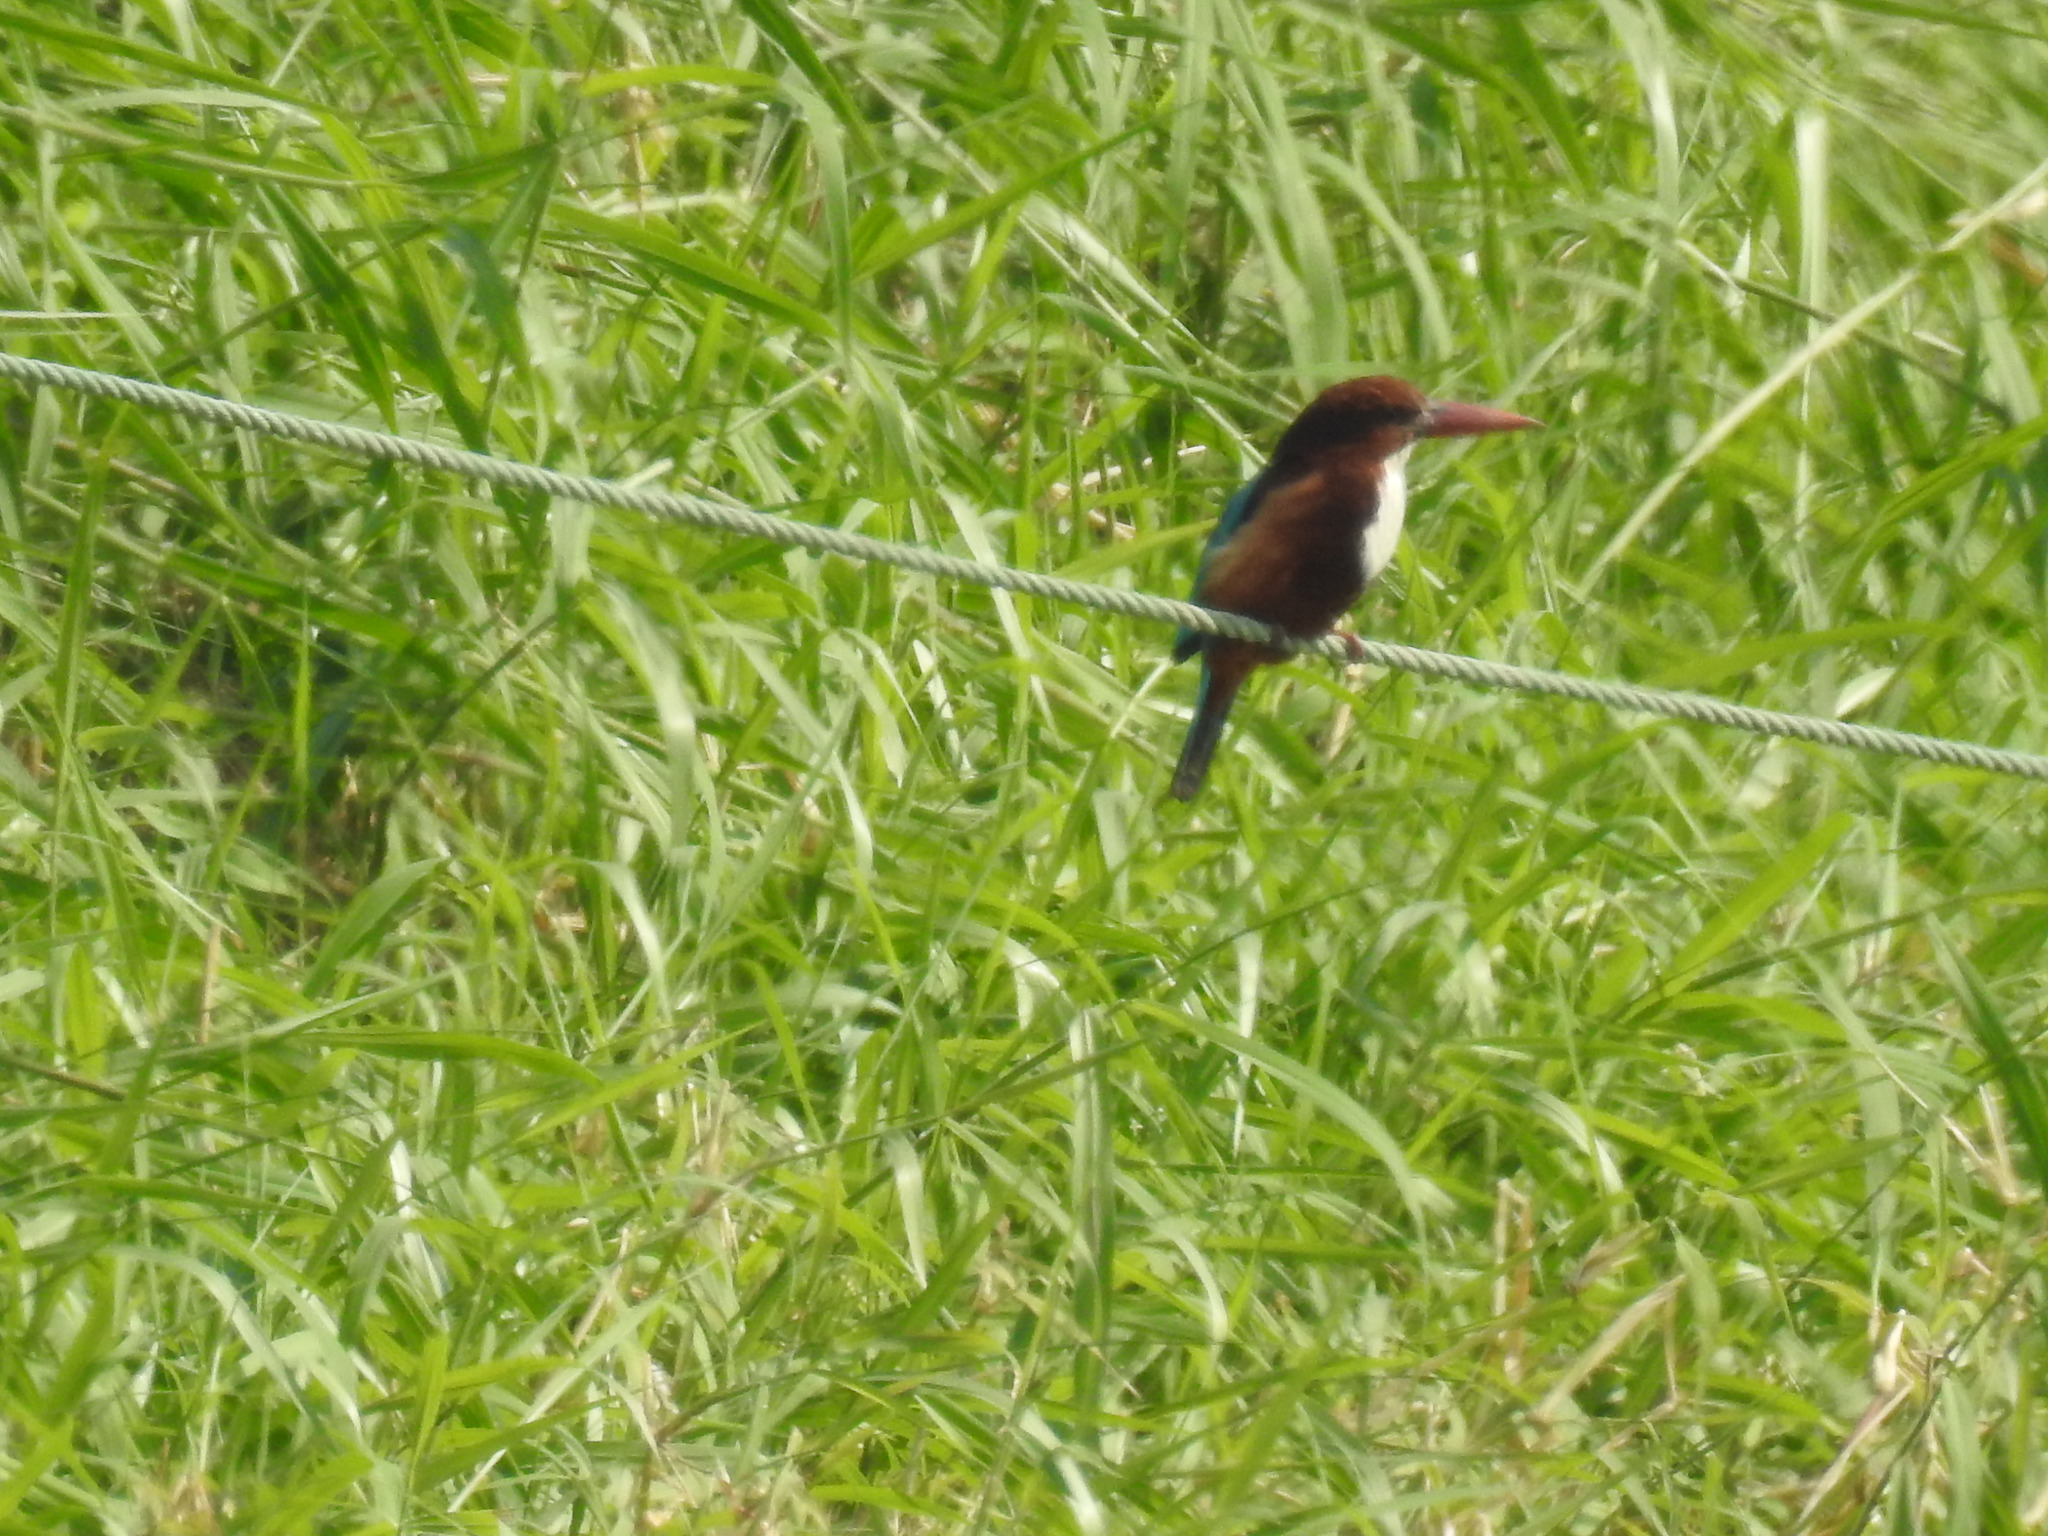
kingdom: Animalia
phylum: Chordata
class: Aves
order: Coraciiformes
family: Alcedinidae
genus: Halcyon
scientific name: Halcyon smyrnensis
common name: White-throated kingfisher
